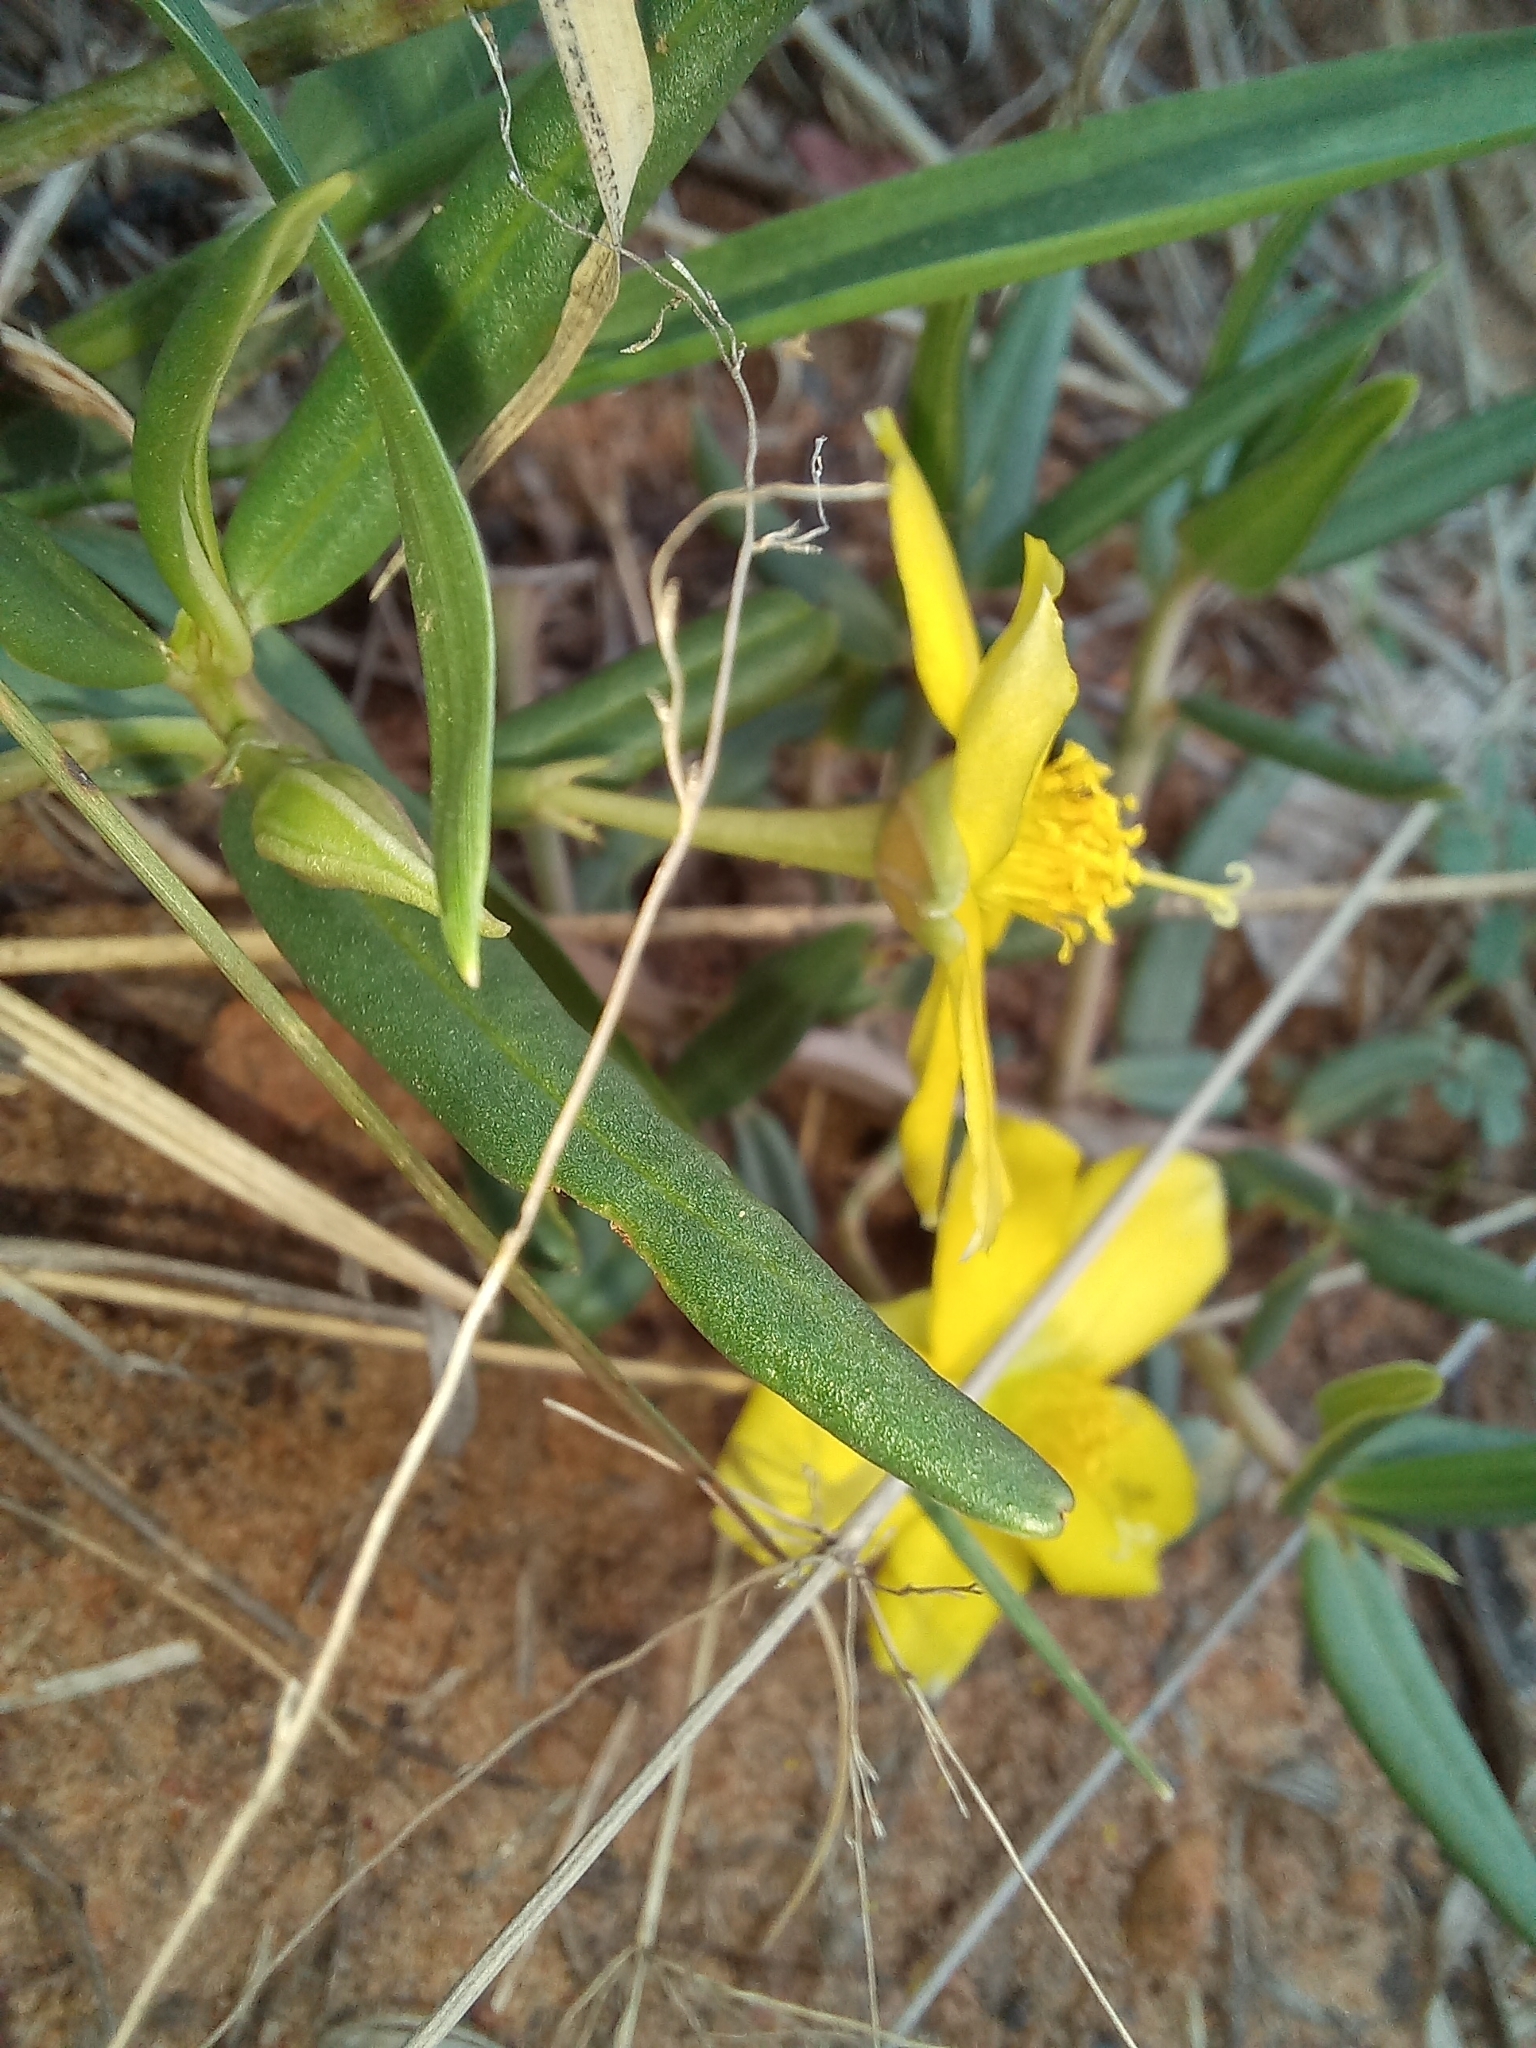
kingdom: Plantae
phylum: Tracheophyta
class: Magnoliopsida
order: Caryophyllales
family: Talinaceae
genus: Talinum
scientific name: Talinum caffrum
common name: Flameflower
